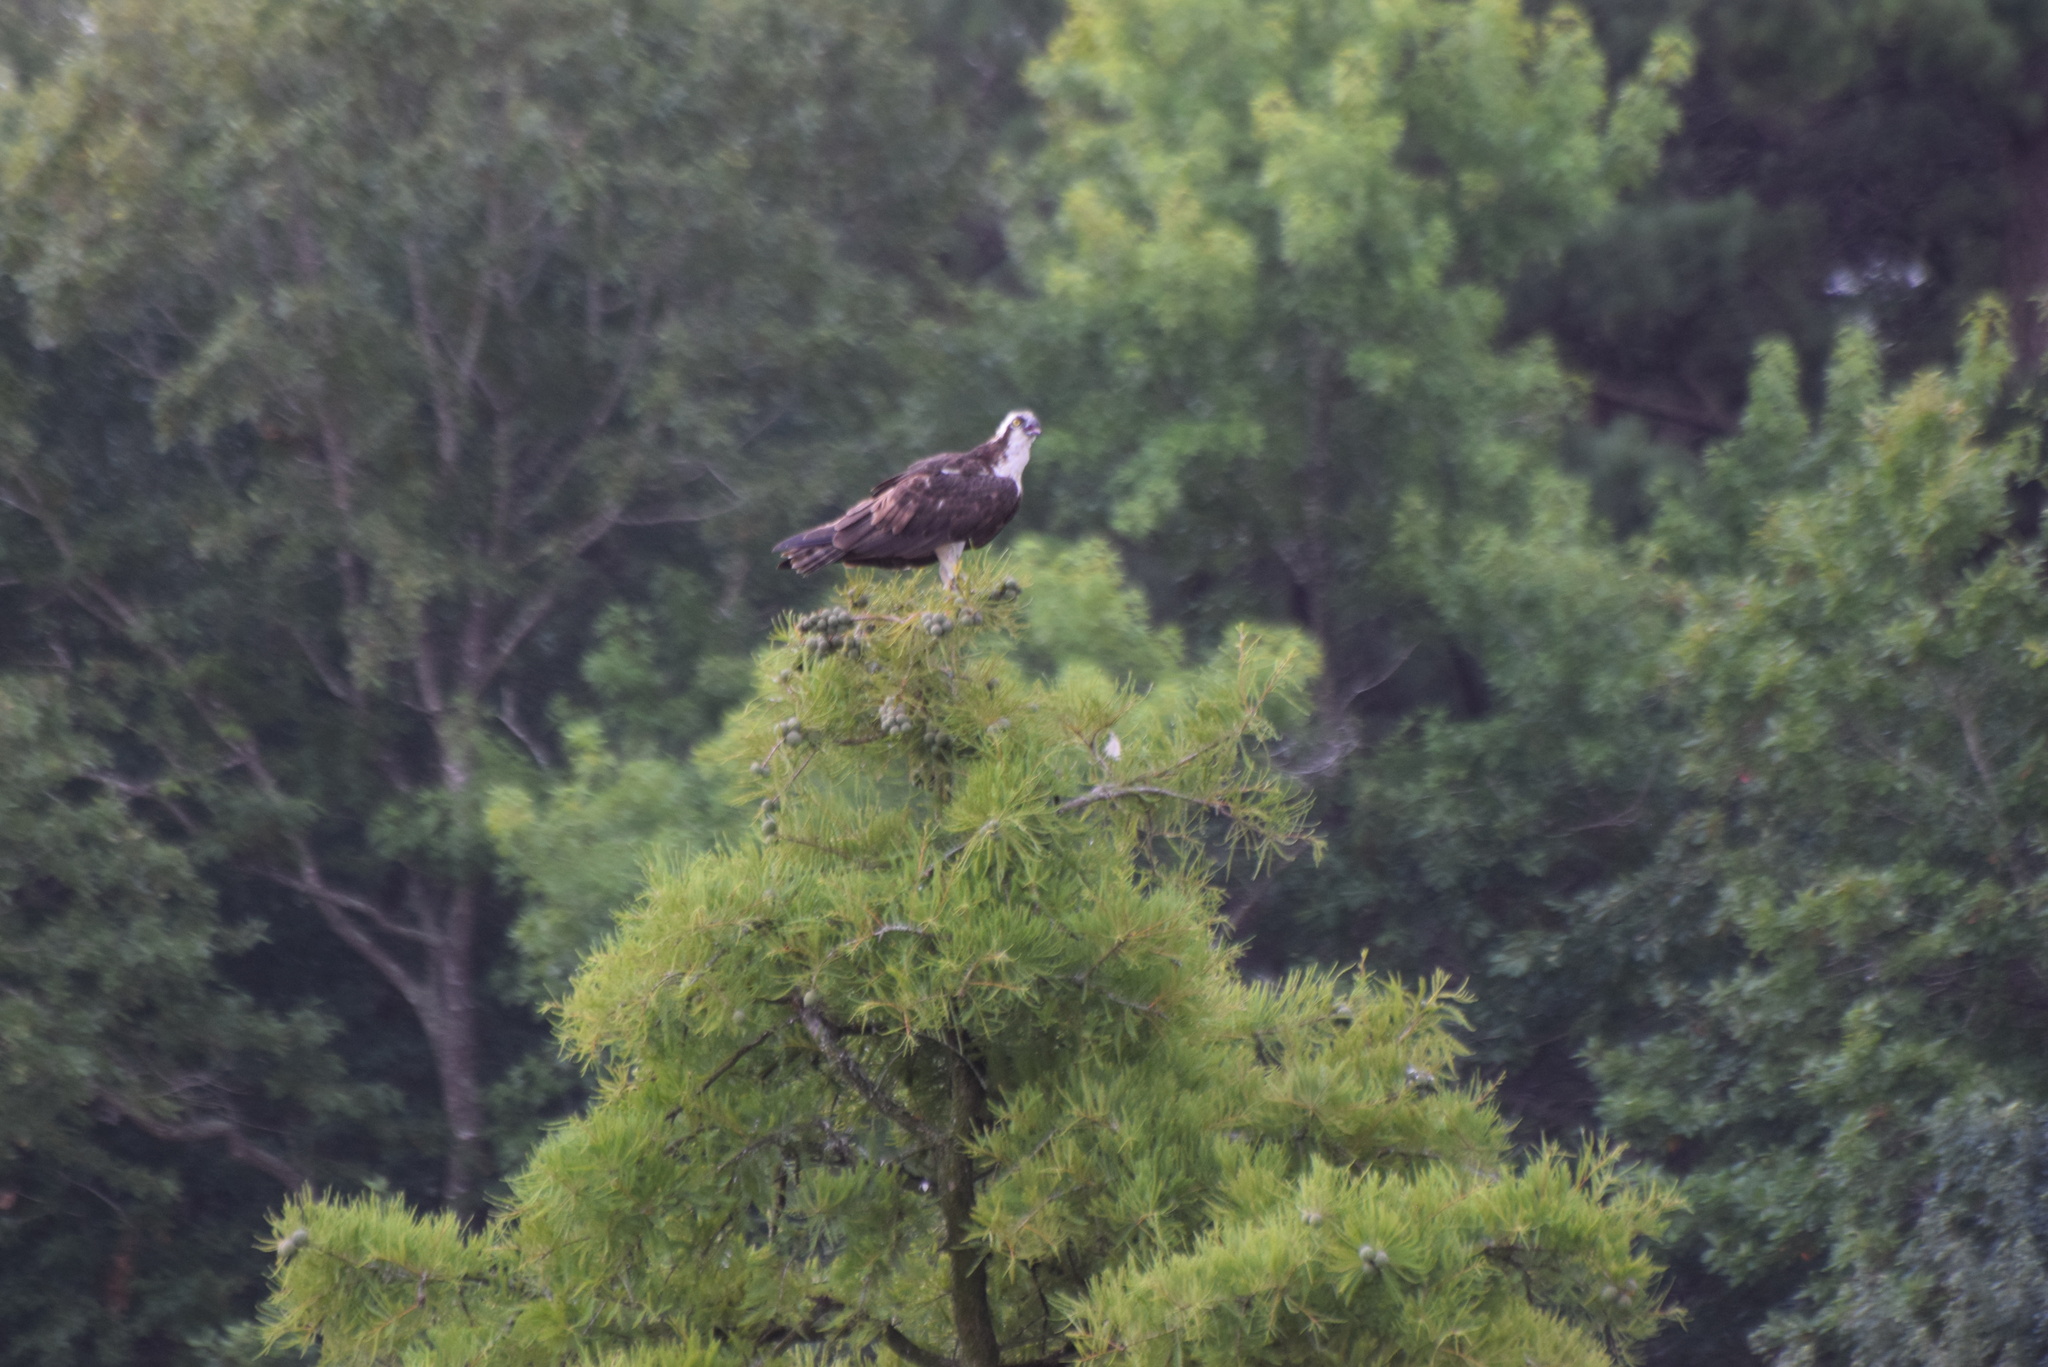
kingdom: Animalia
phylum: Chordata
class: Aves
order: Accipitriformes
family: Pandionidae
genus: Pandion
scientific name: Pandion haliaetus
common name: Osprey
